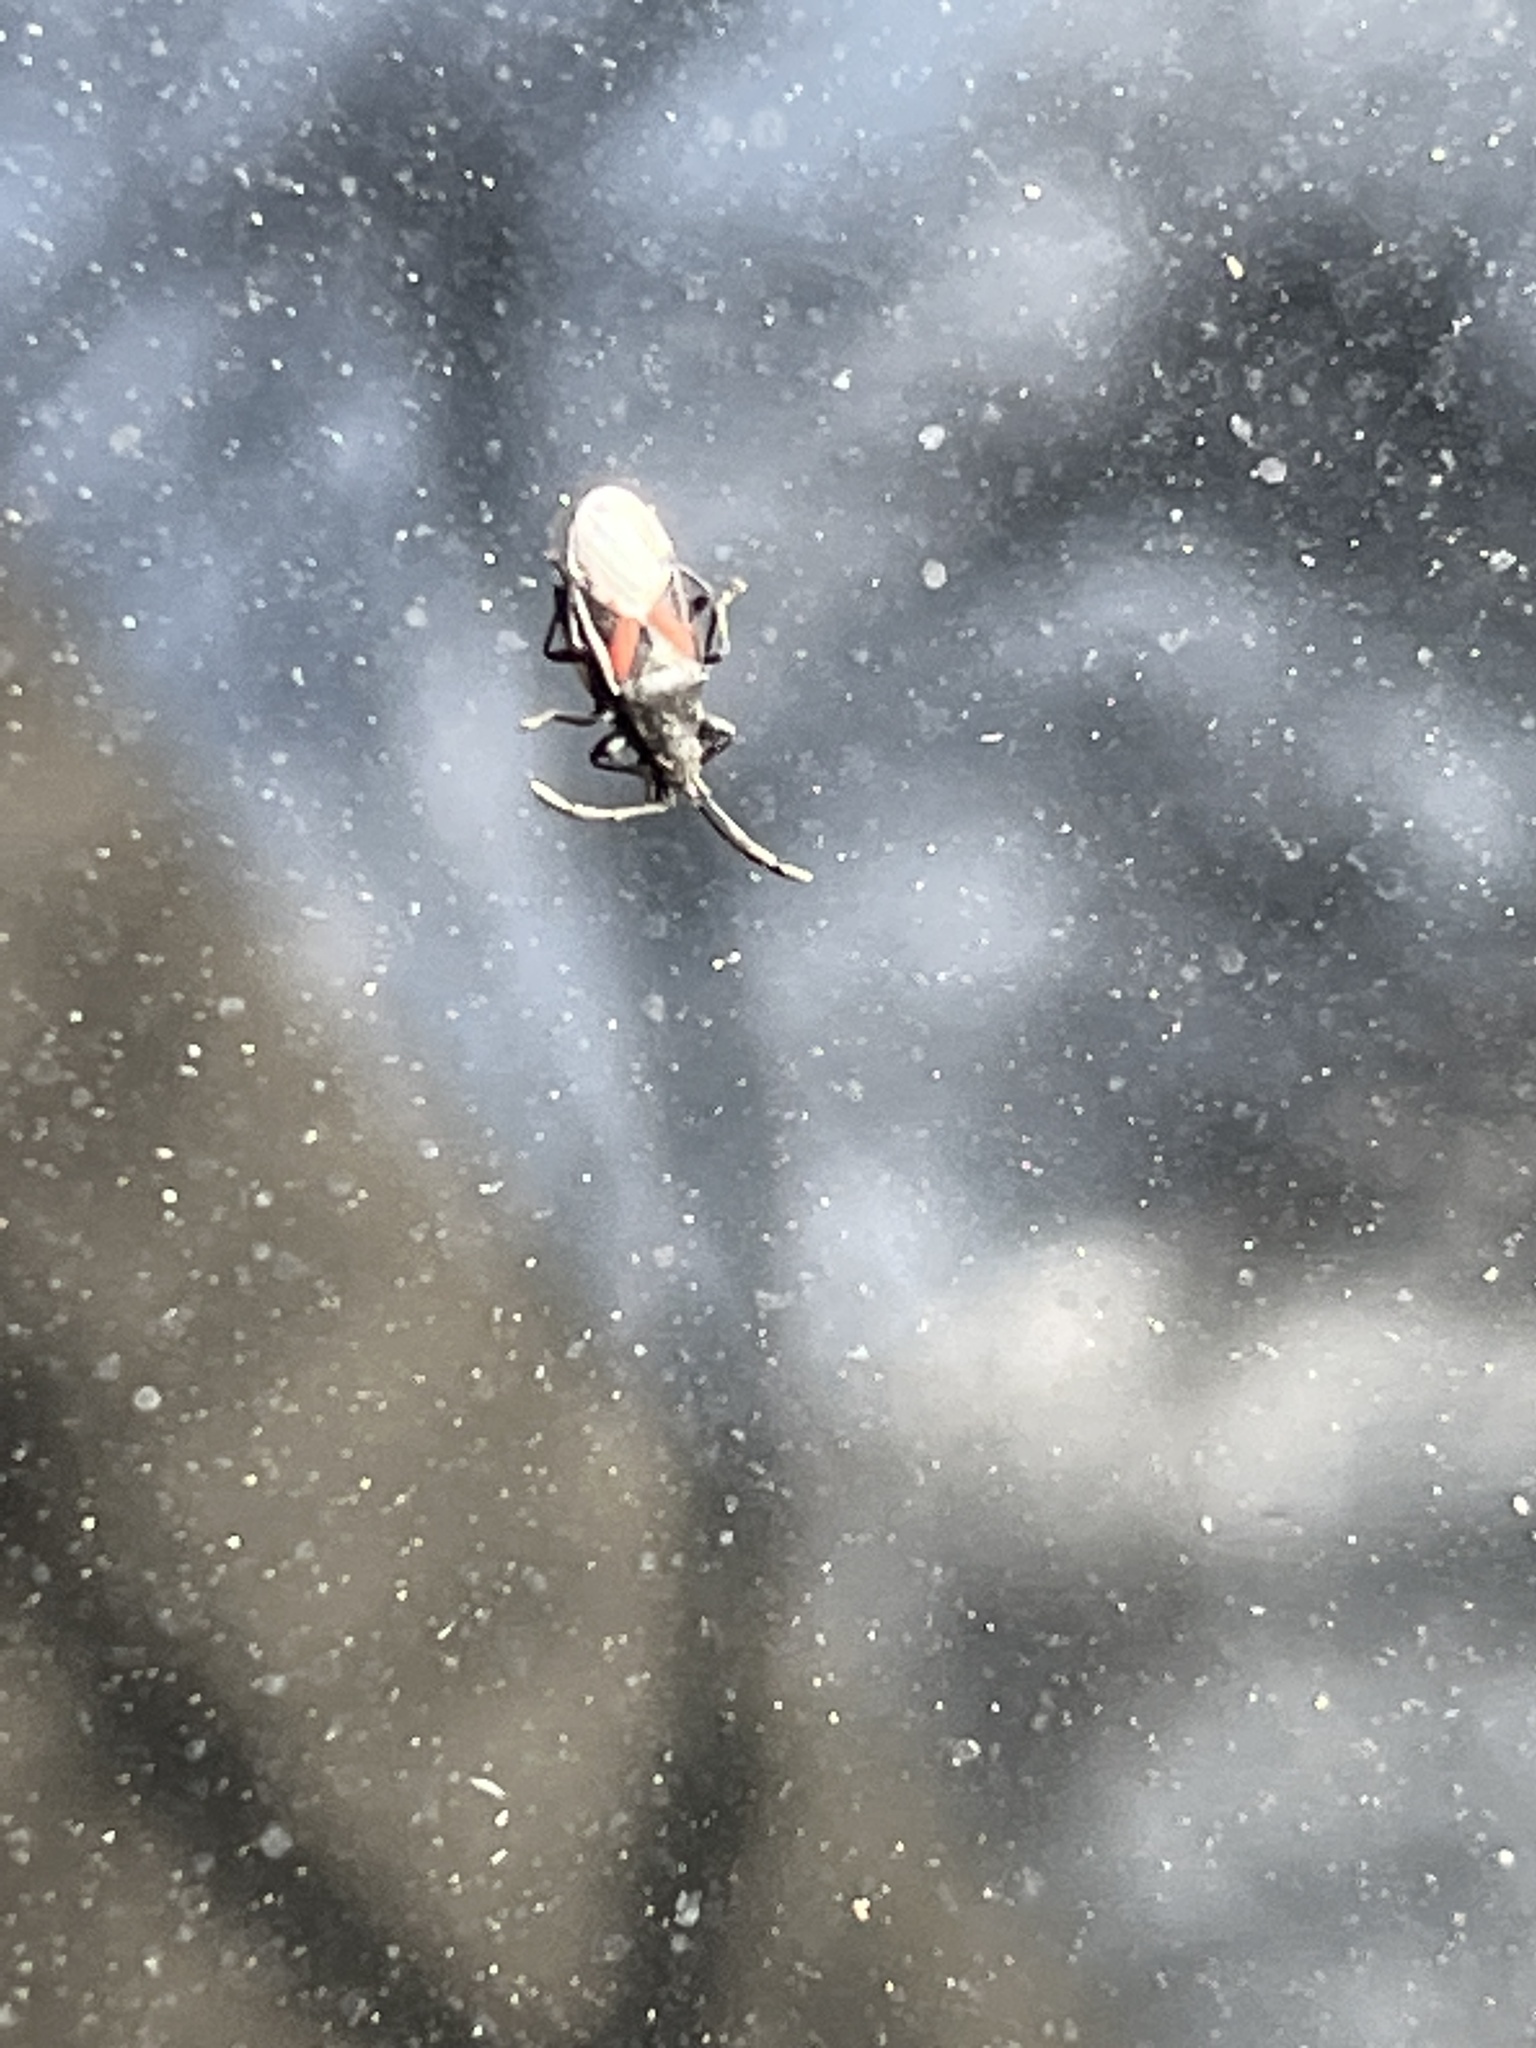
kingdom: Animalia
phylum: Arthropoda
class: Insecta
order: Hemiptera
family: Oxycarenidae
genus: Oxycarenus
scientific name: Oxycarenus lavaterae
